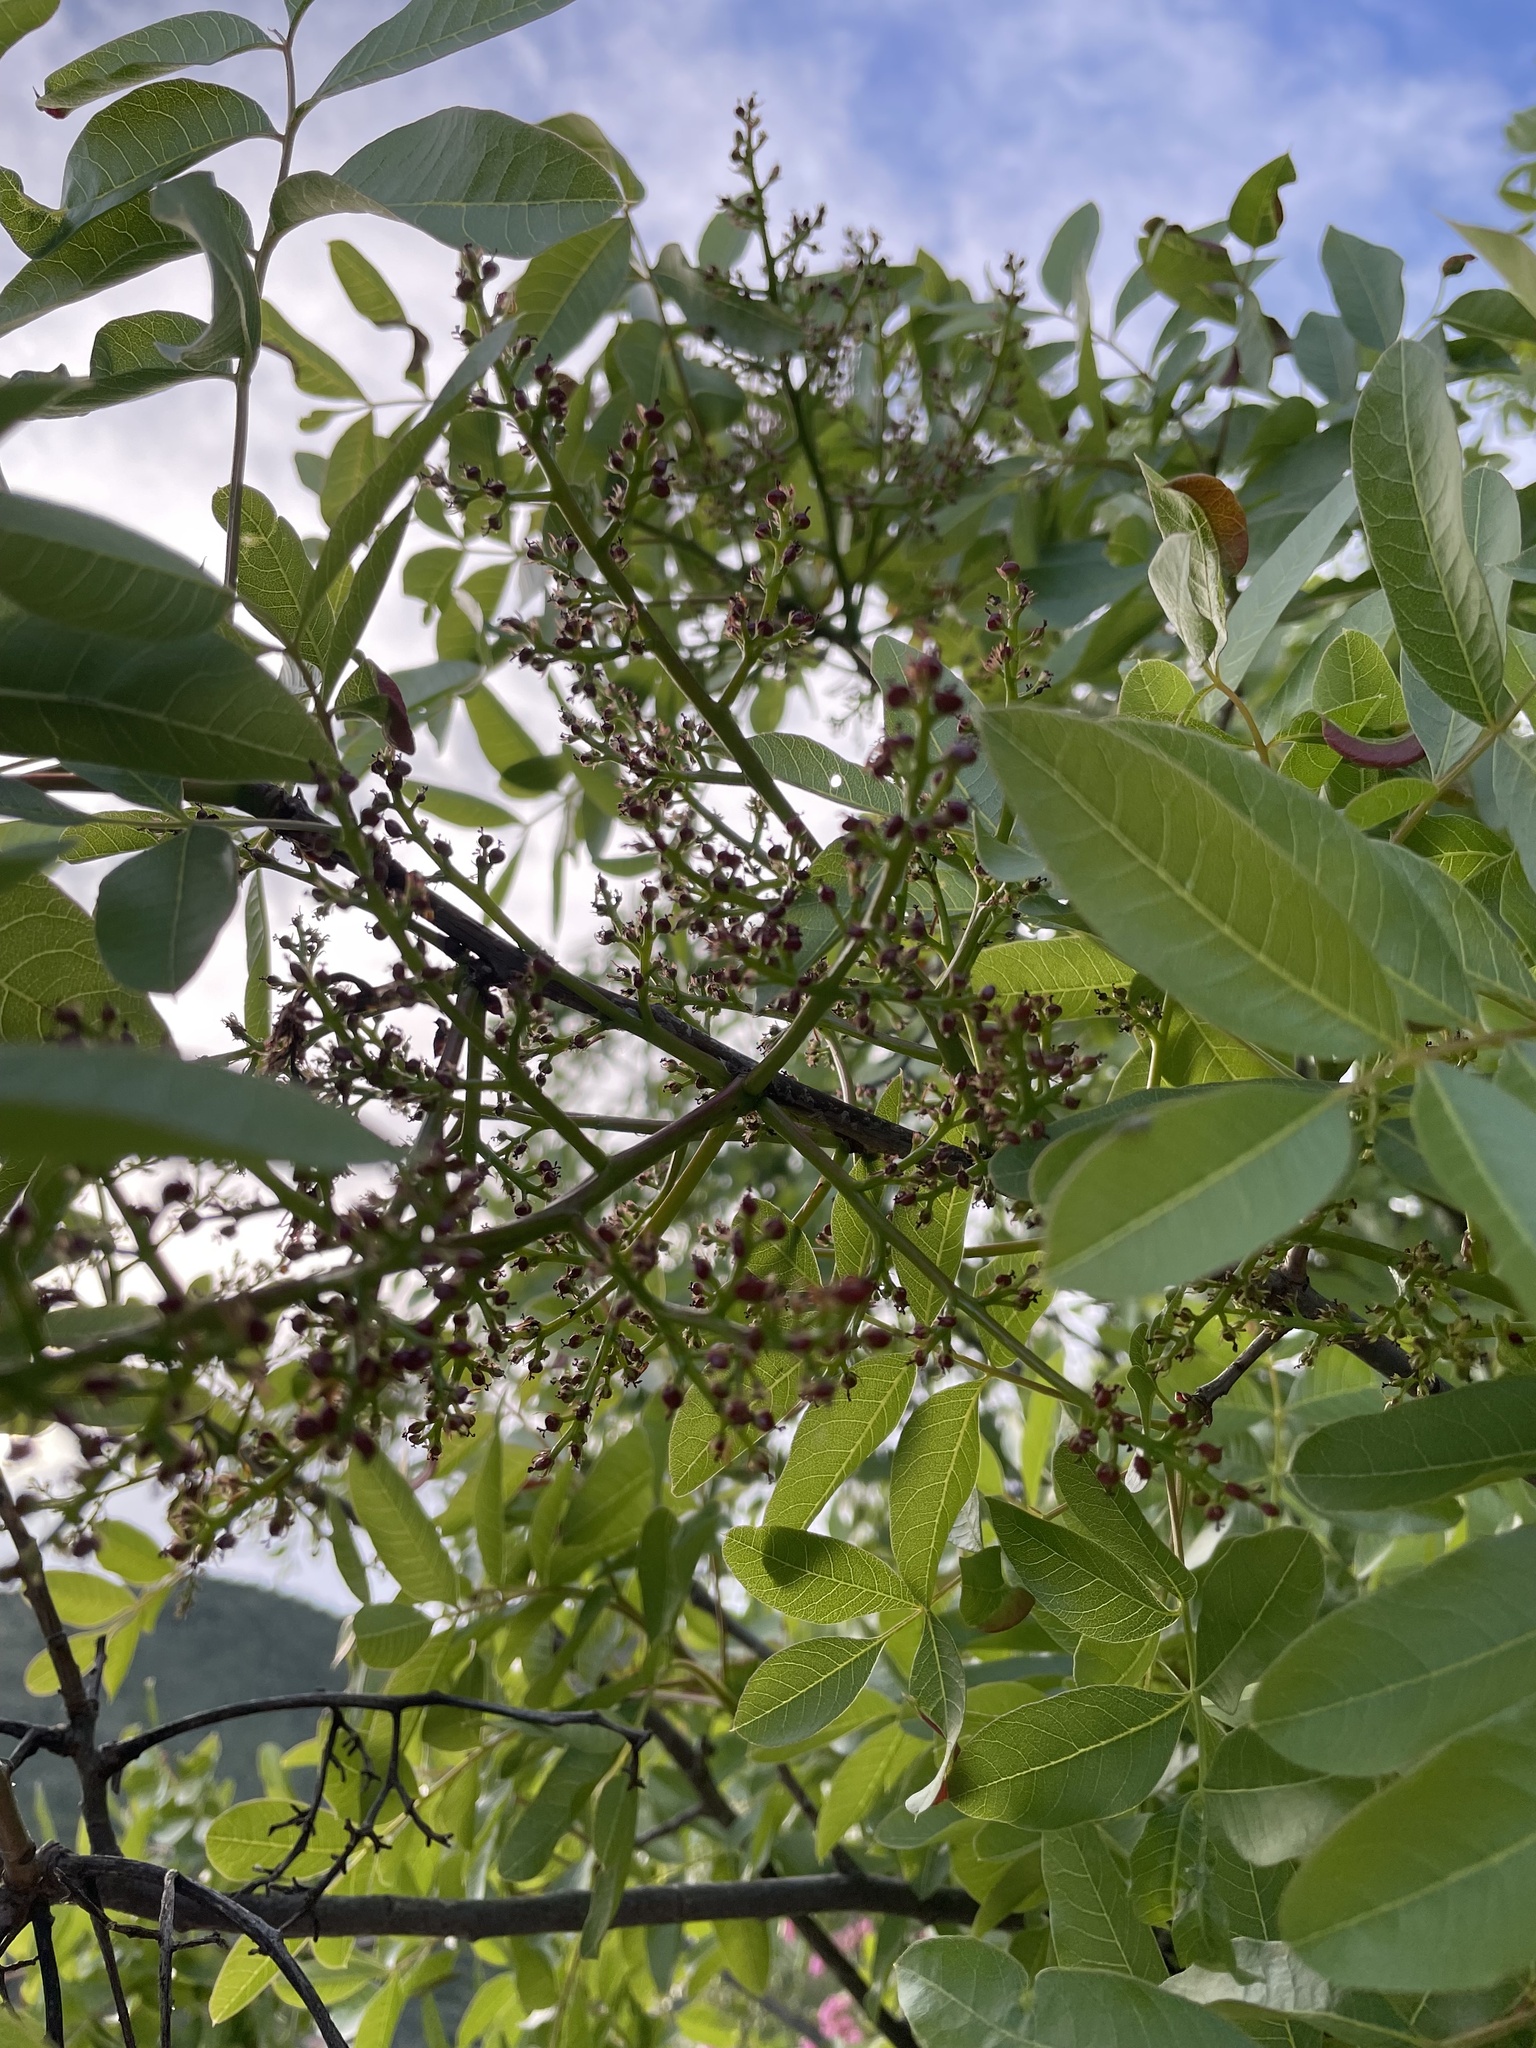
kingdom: Plantae
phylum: Tracheophyta
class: Magnoliopsida
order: Sapindales
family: Anacardiaceae
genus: Pistacia
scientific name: Pistacia terebinthus
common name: Terebinth
